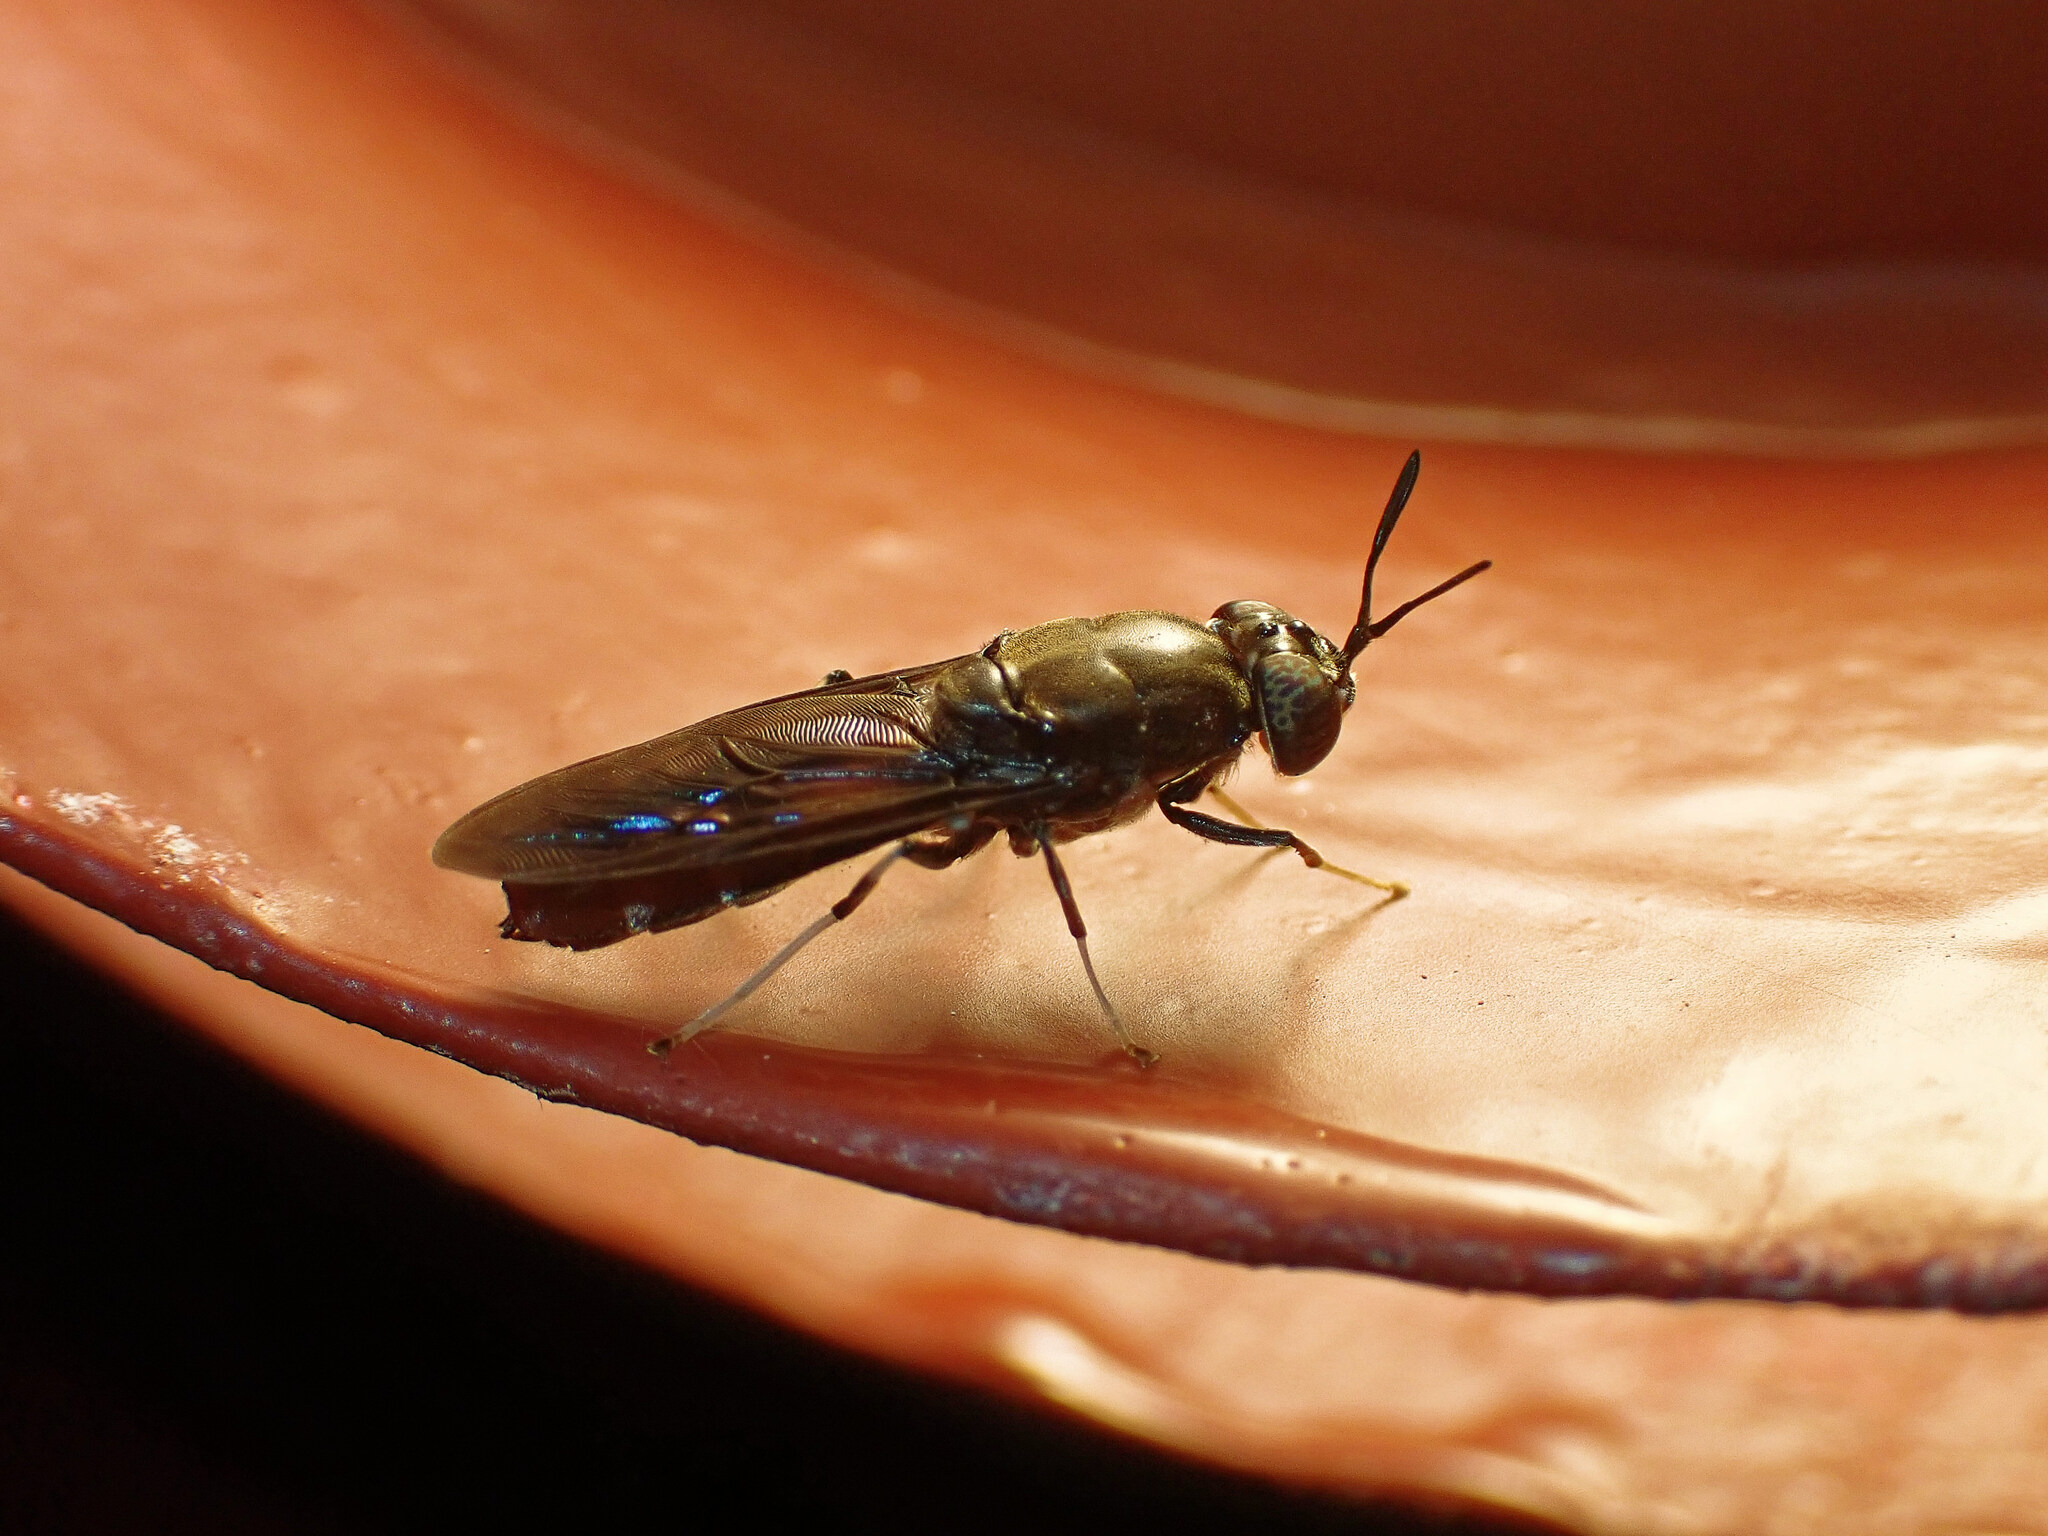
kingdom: Animalia
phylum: Arthropoda
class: Insecta
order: Diptera
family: Stratiomyidae
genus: Hermetia
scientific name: Hermetia illucens
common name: Black soldier fly
